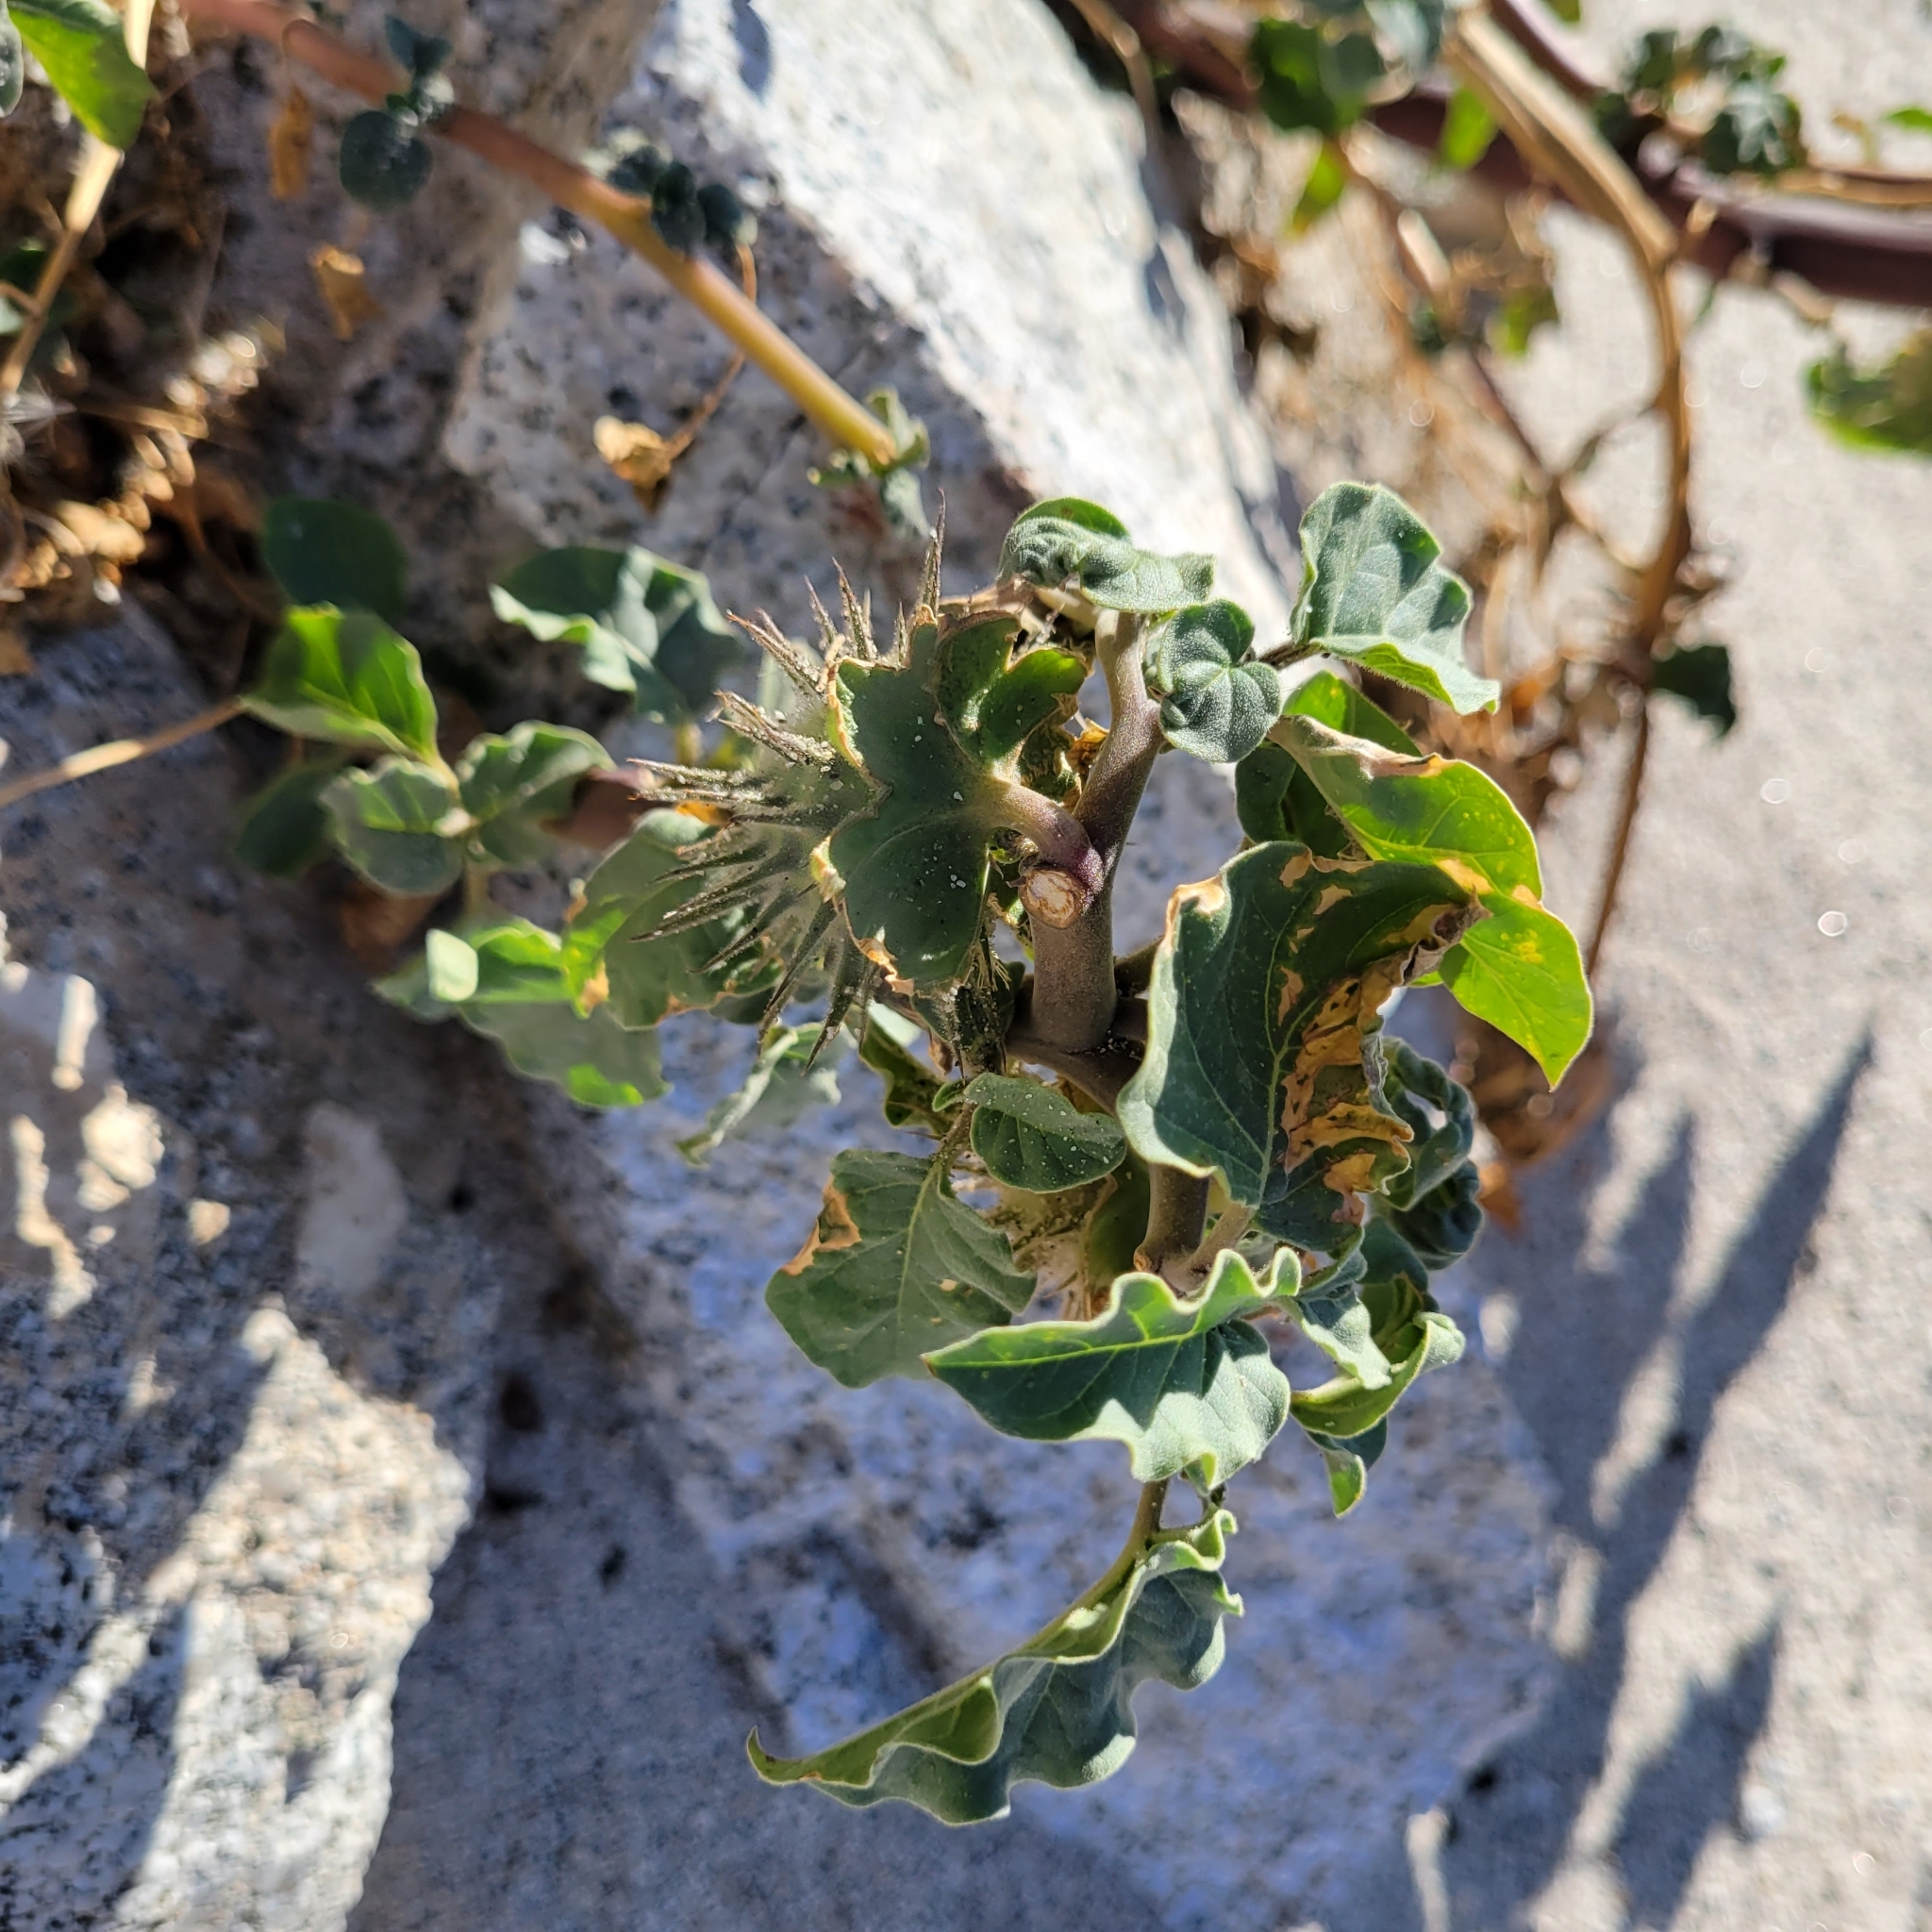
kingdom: Plantae
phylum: Tracheophyta
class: Magnoliopsida
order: Solanales
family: Solanaceae
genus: Datura
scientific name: Datura discolor
